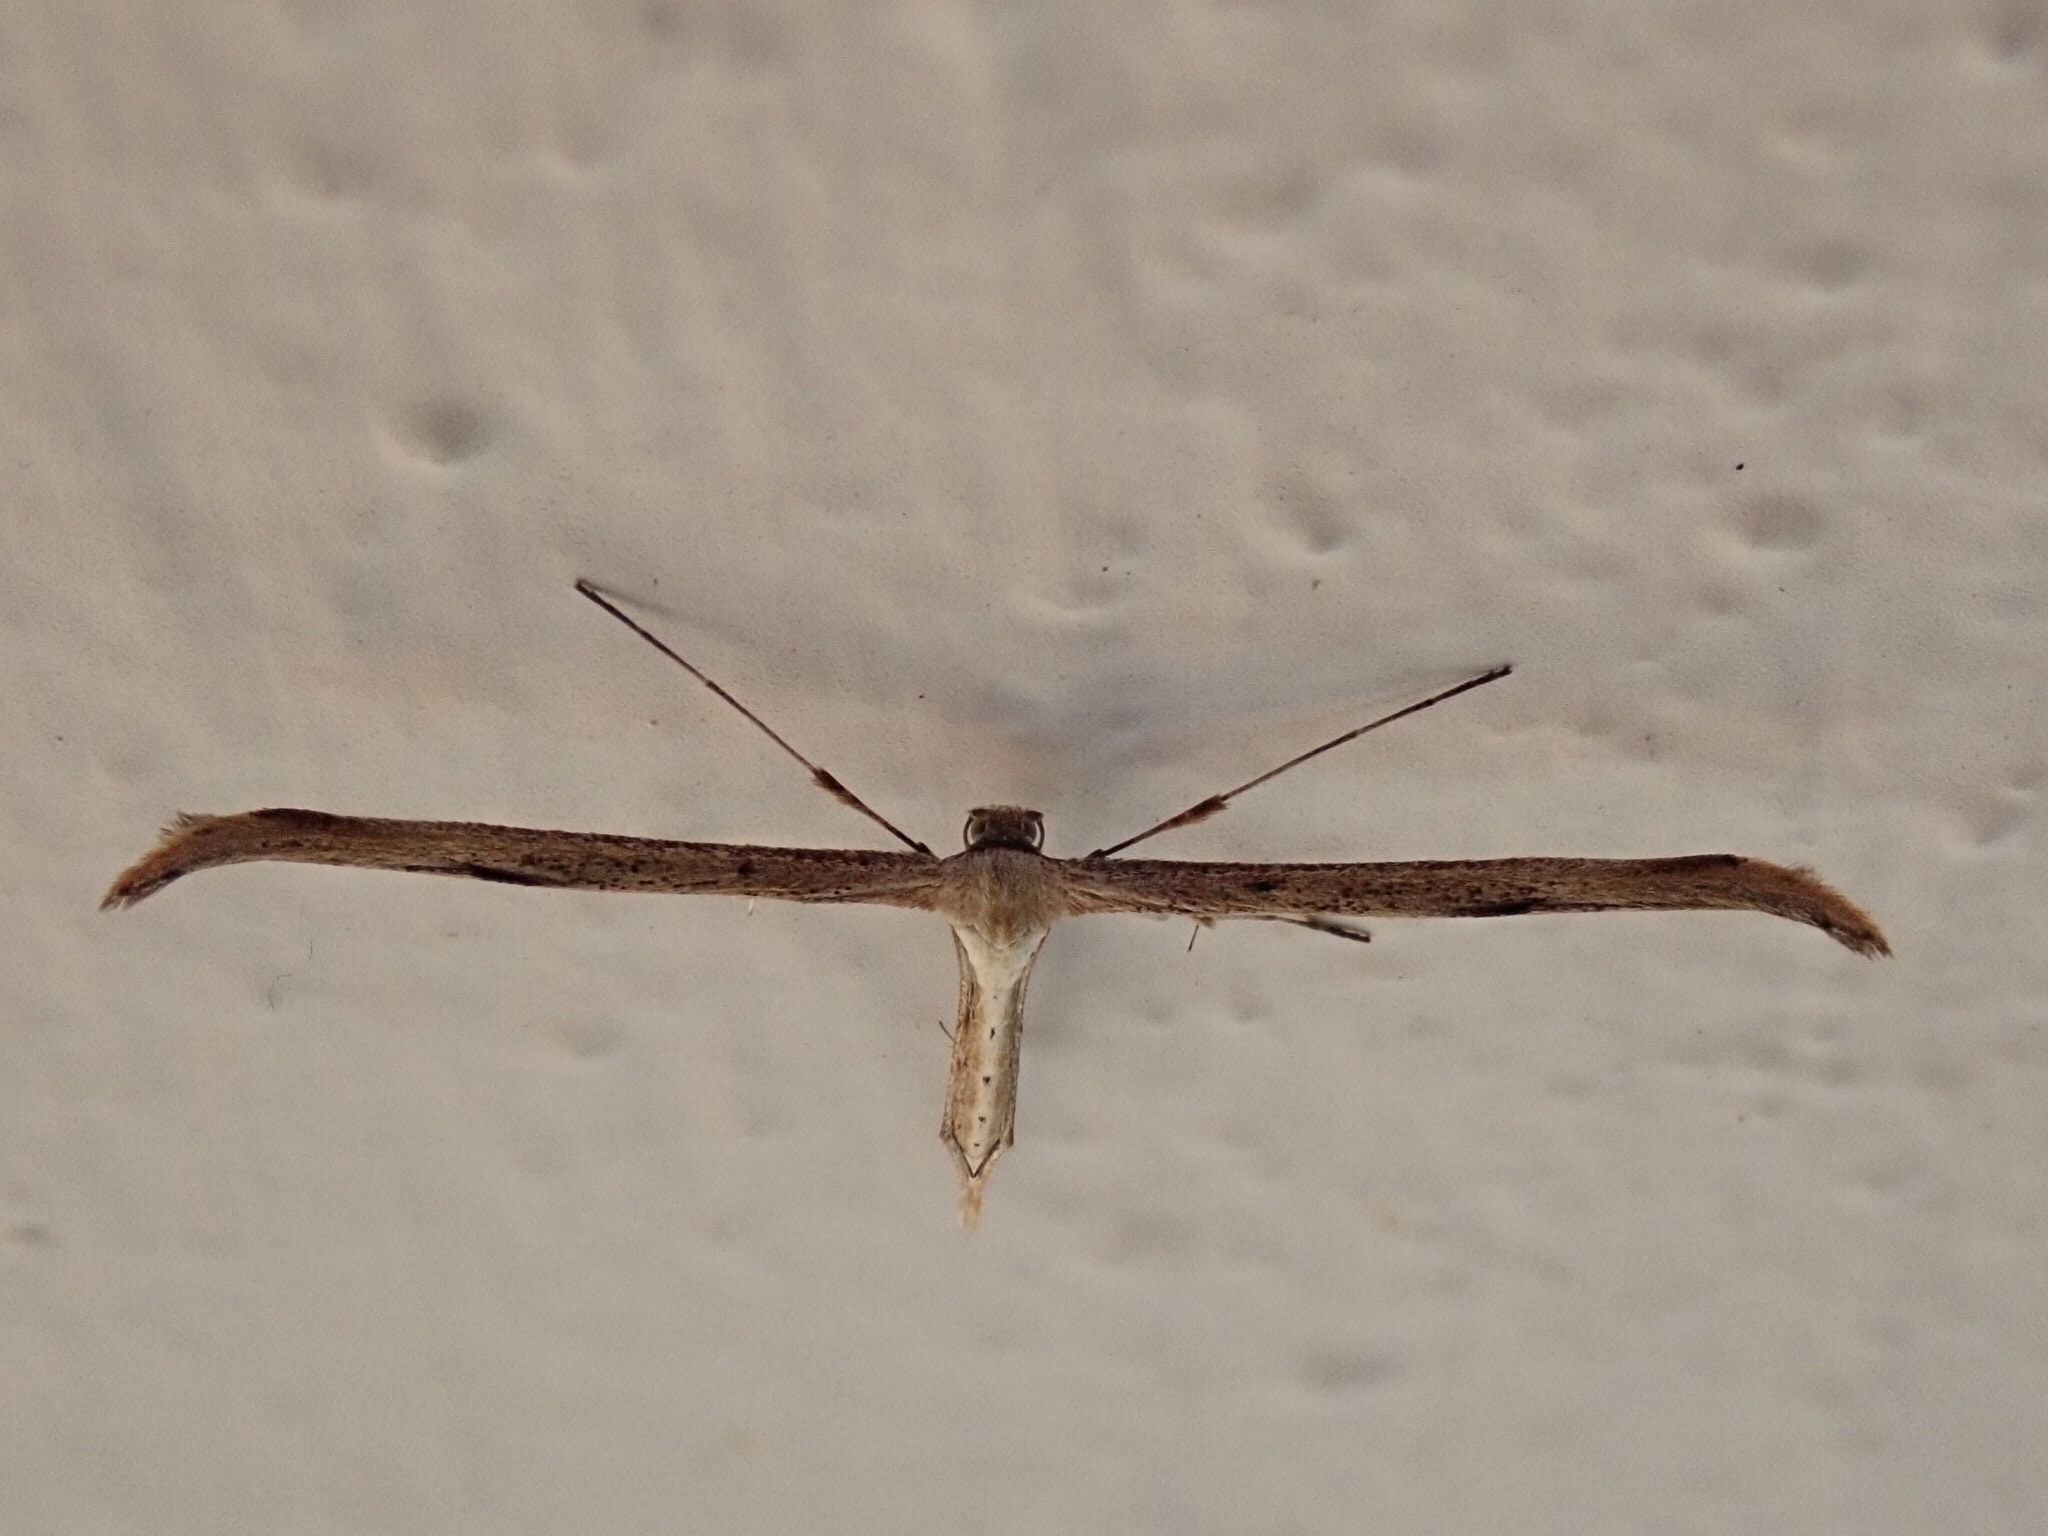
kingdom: Animalia
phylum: Arthropoda
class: Insecta
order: Lepidoptera
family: Pterophoridae
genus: Emmelina
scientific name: Emmelina monodactyla
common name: Common plume
